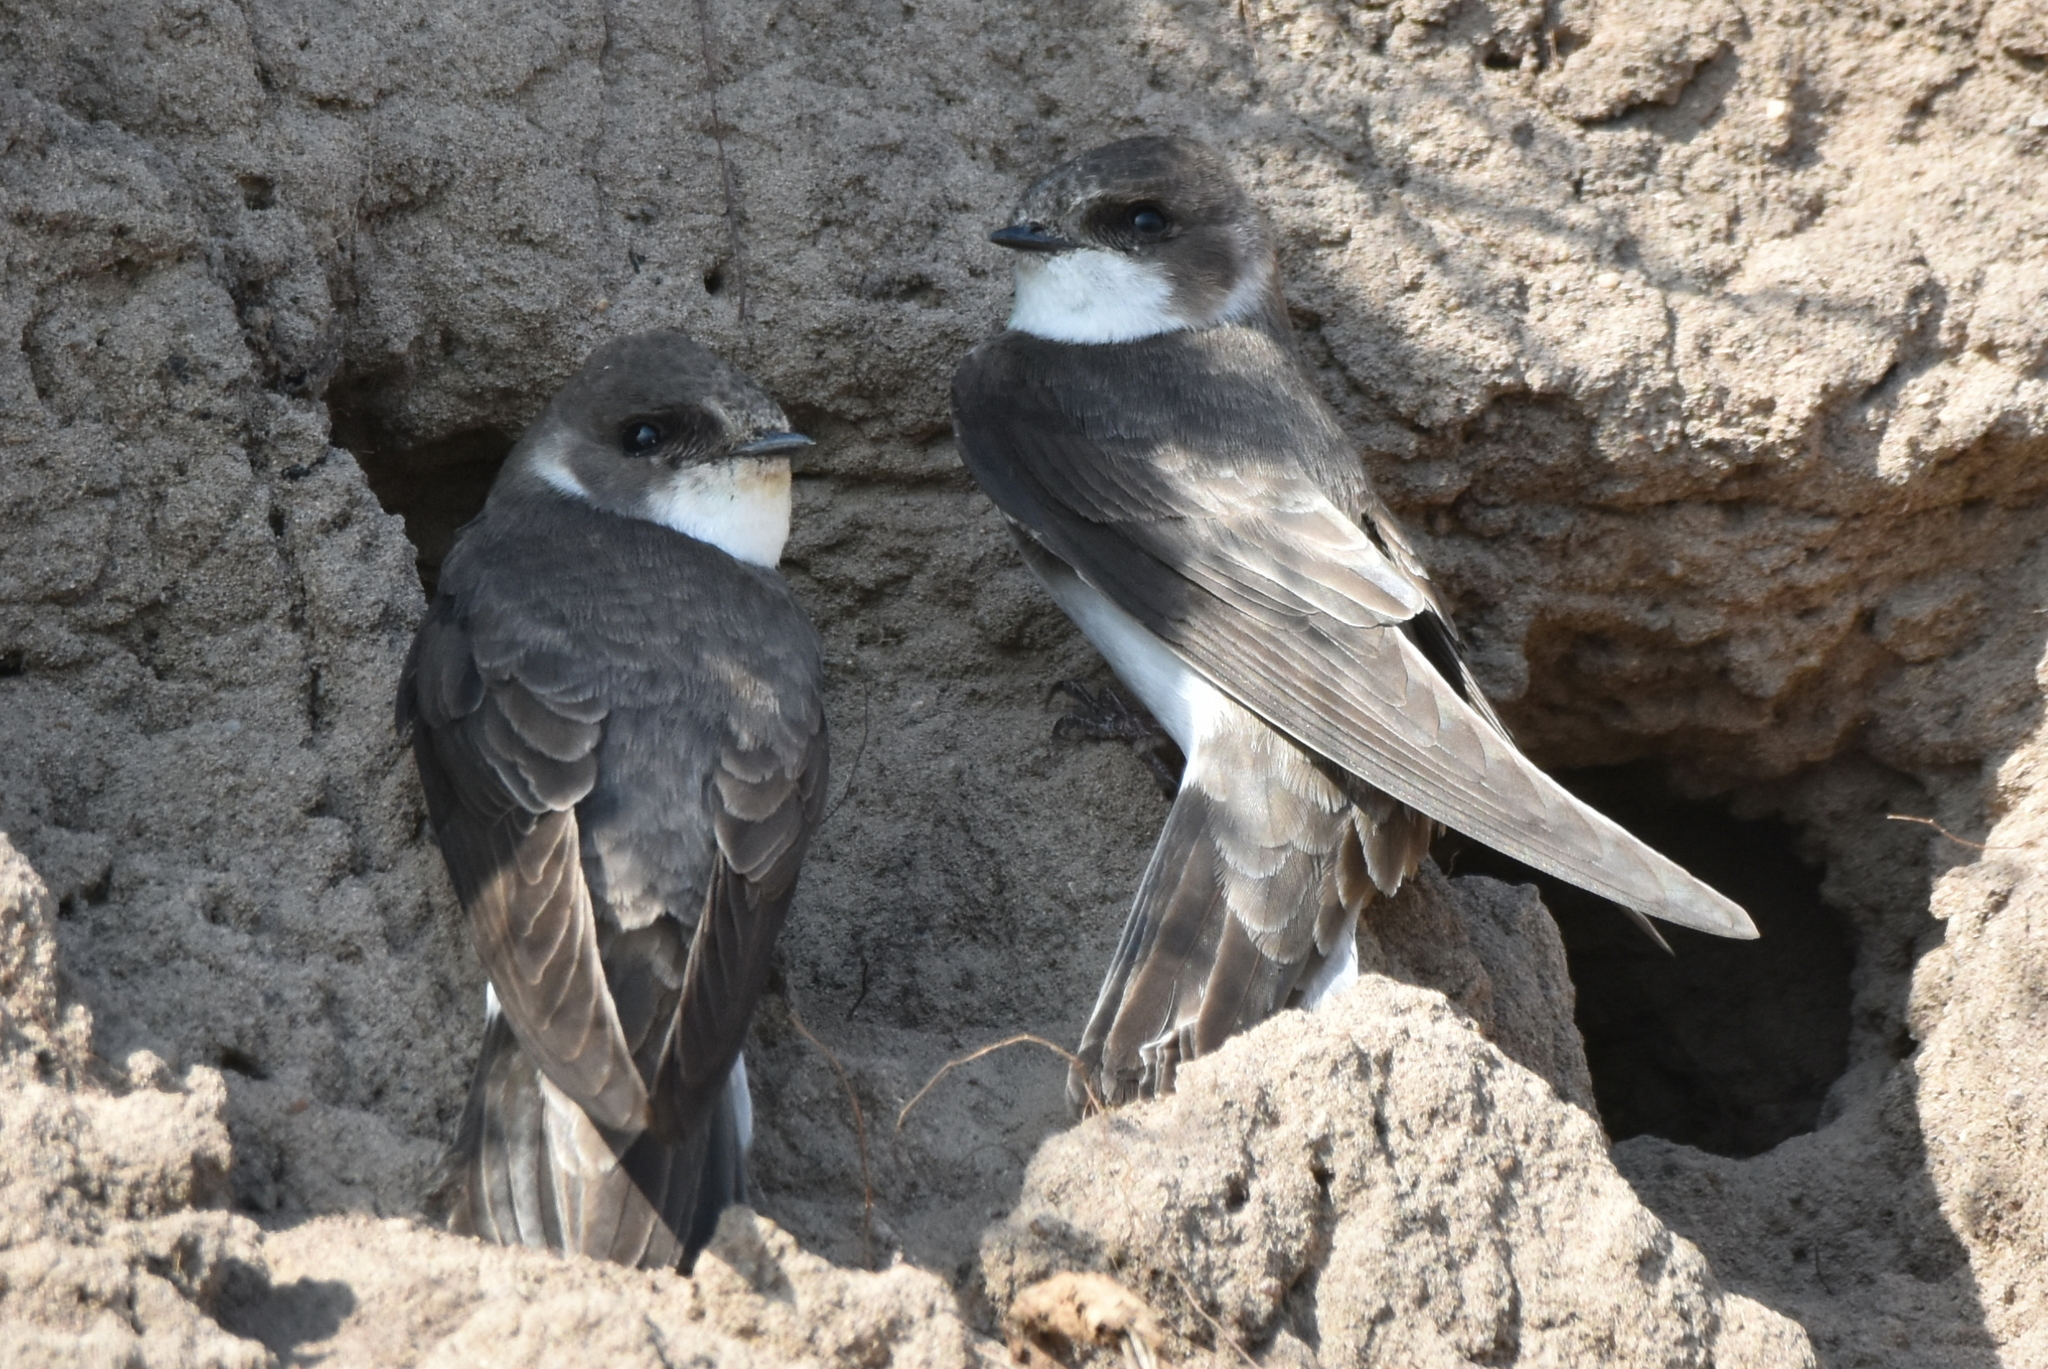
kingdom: Animalia
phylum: Chordata
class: Aves
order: Passeriformes
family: Hirundinidae
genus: Riparia
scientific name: Riparia riparia
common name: Sand martin
